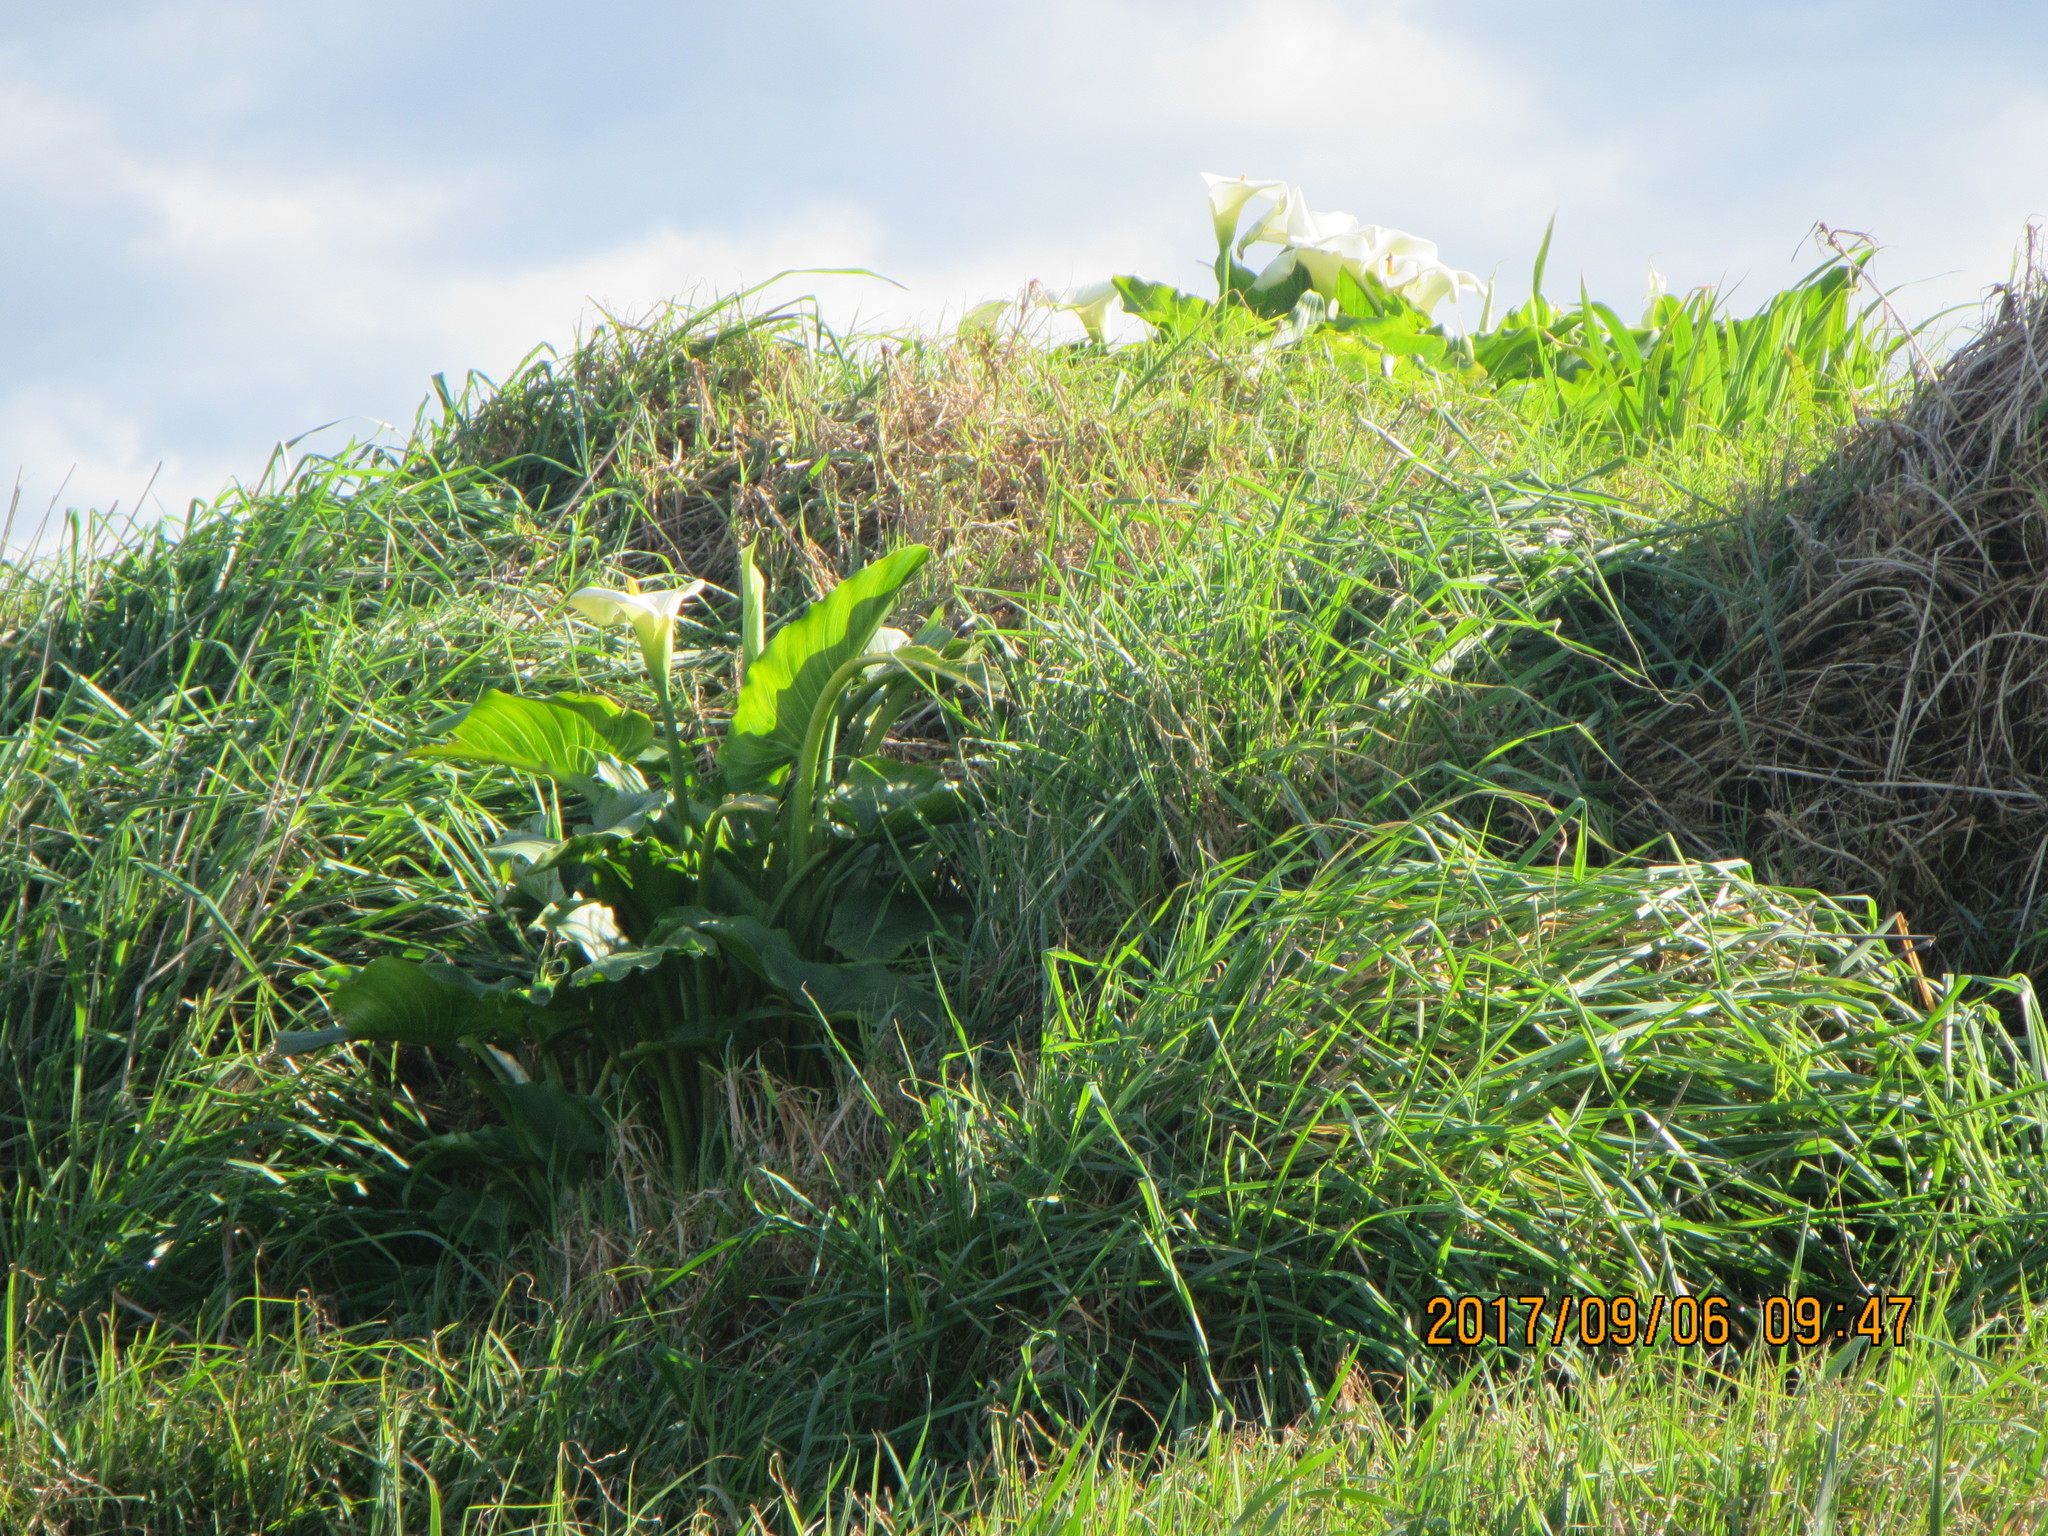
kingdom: Plantae
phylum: Tracheophyta
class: Liliopsida
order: Alismatales
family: Araceae
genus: Zantedeschia
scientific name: Zantedeschia aethiopica
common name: Altar-lily
